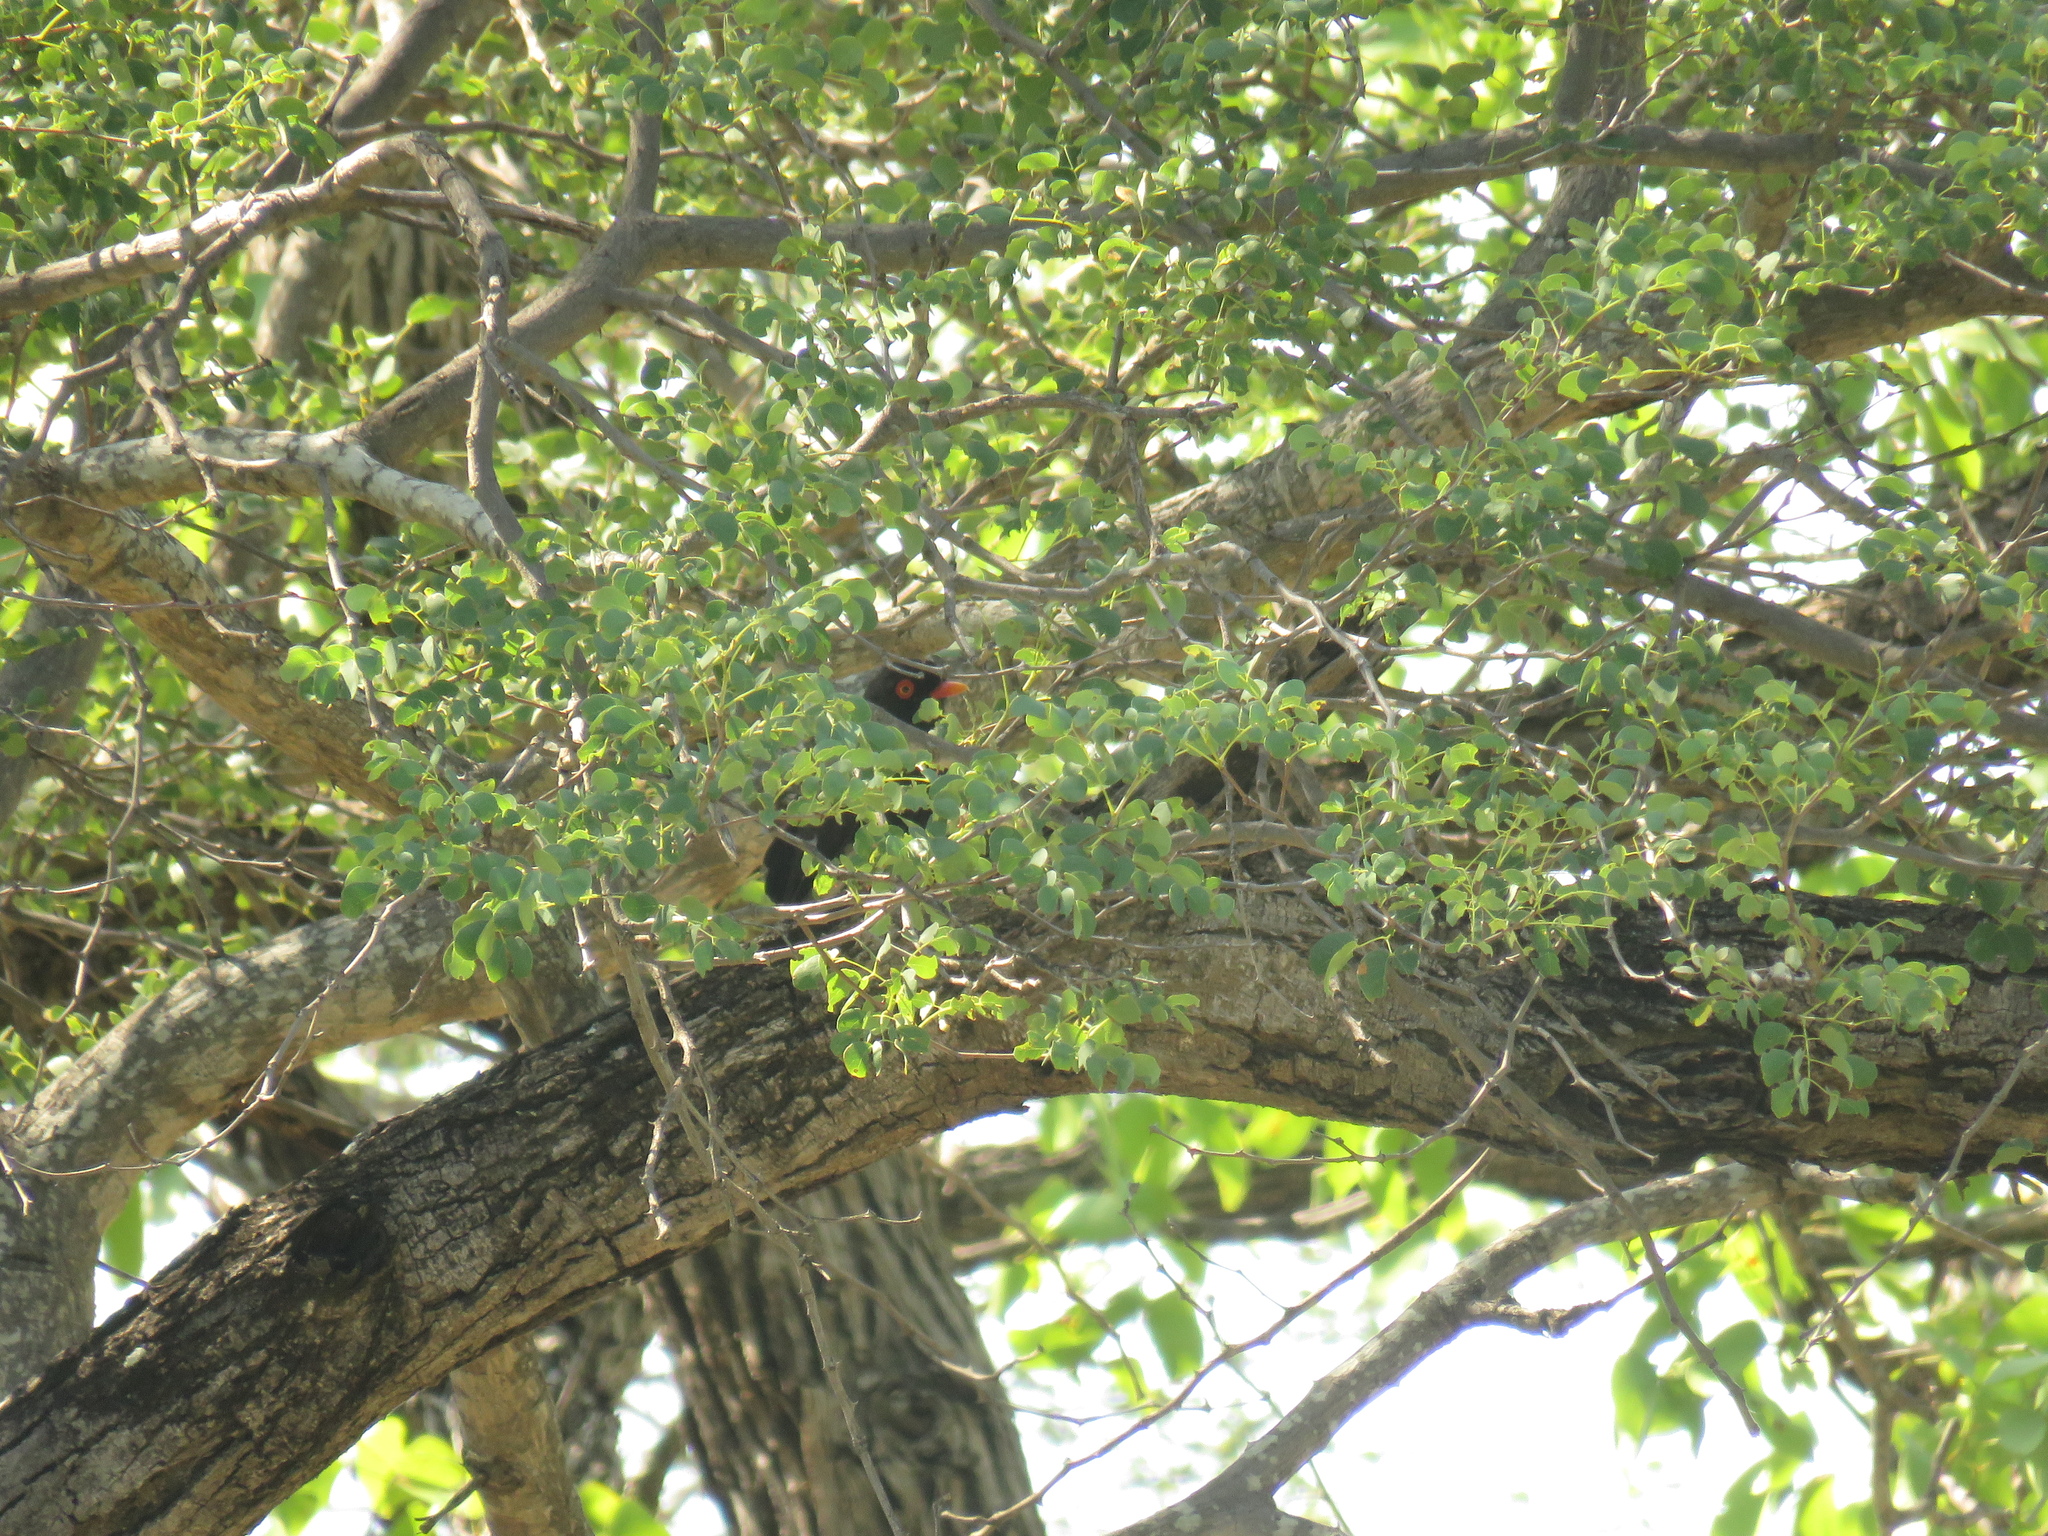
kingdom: Animalia
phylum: Chordata
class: Aves
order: Passeriformes
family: Prionopidae
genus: Prionops
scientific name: Prionops retzii
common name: Retz's helmetshrike
